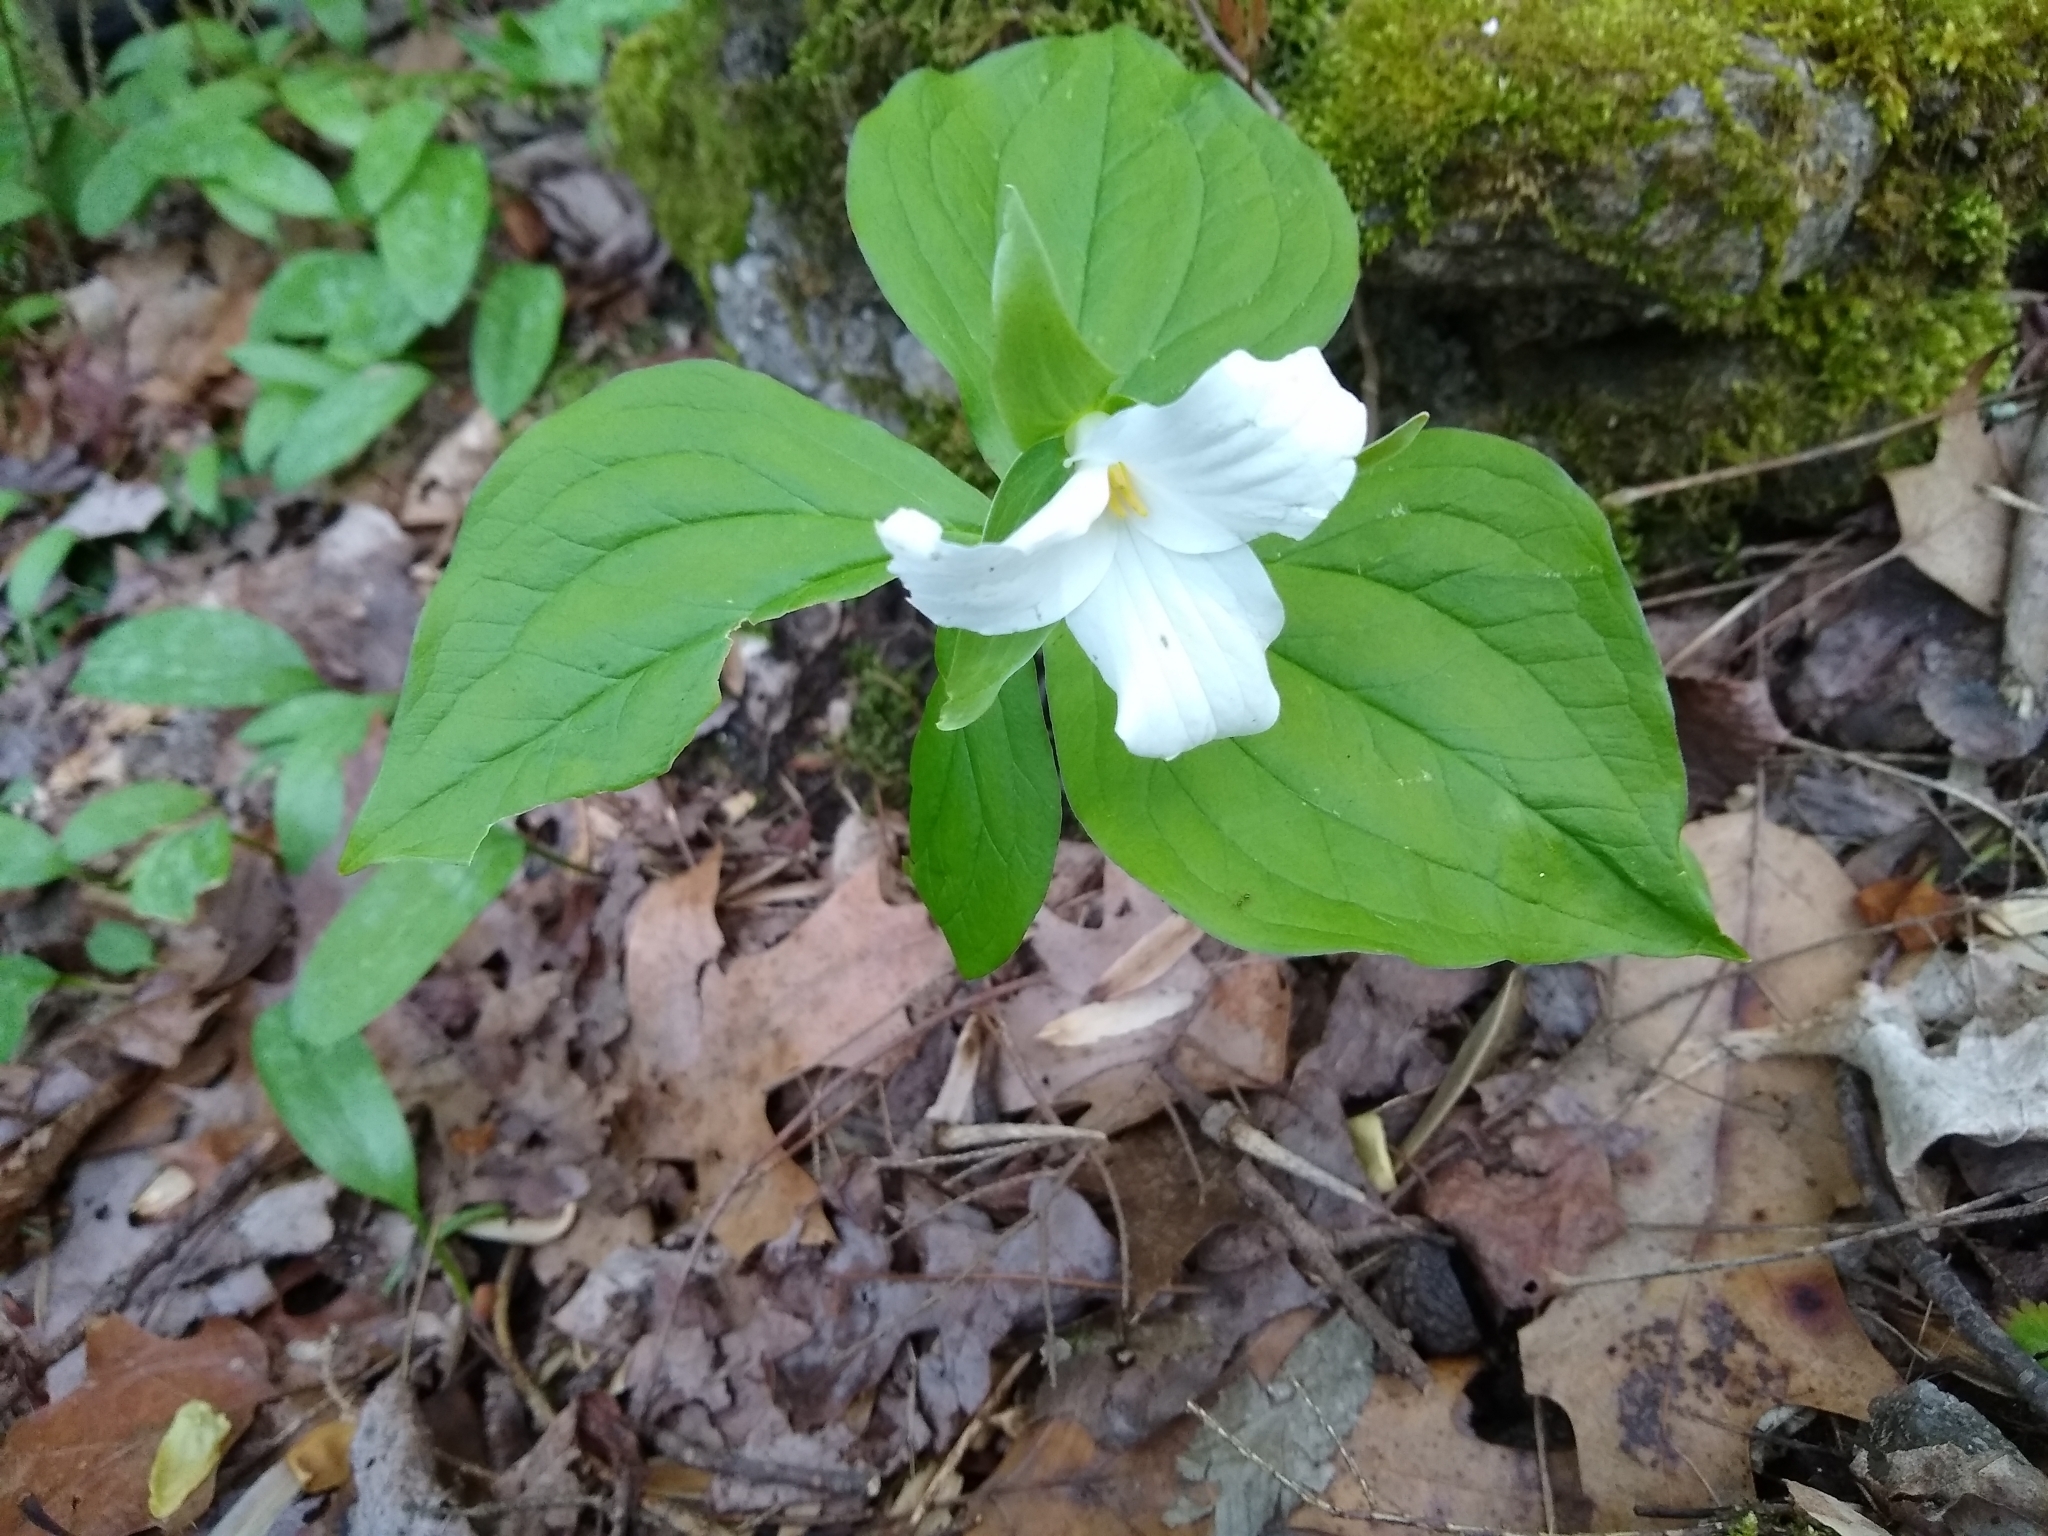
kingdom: Plantae
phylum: Tracheophyta
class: Liliopsida
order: Liliales
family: Melanthiaceae
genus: Trillium
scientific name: Trillium grandiflorum
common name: Great white trillium
